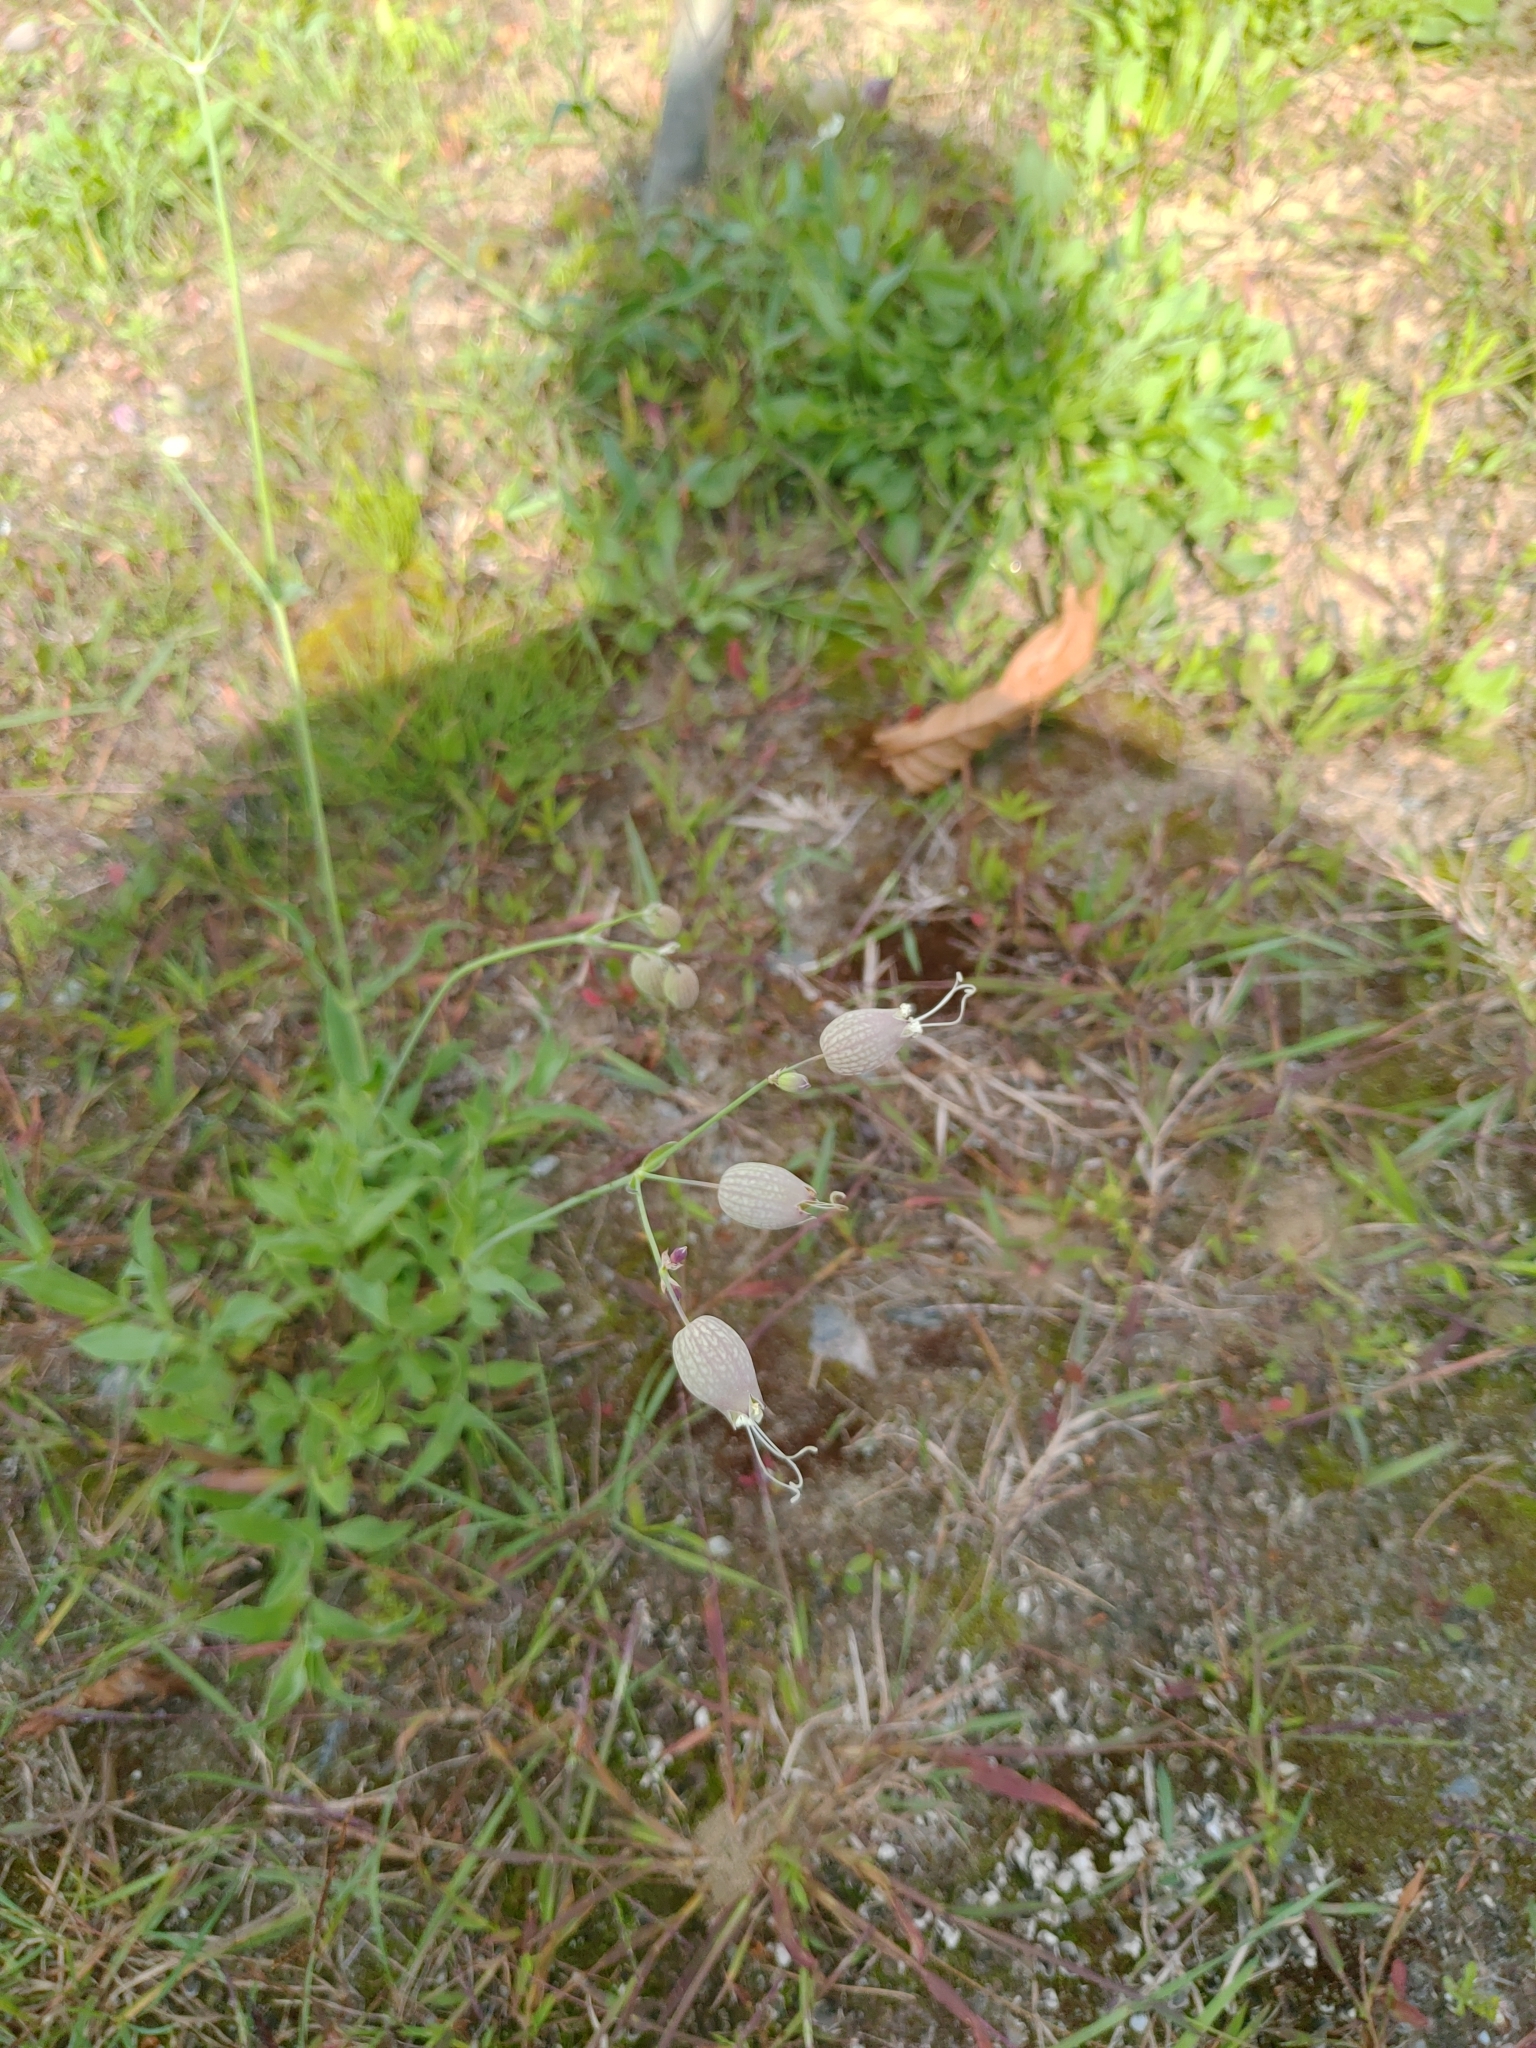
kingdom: Plantae
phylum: Tracheophyta
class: Magnoliopsida
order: Caryophyllales
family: Caryophyllaceae
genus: Silene
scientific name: Silene vulgaris
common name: Bladder campion
